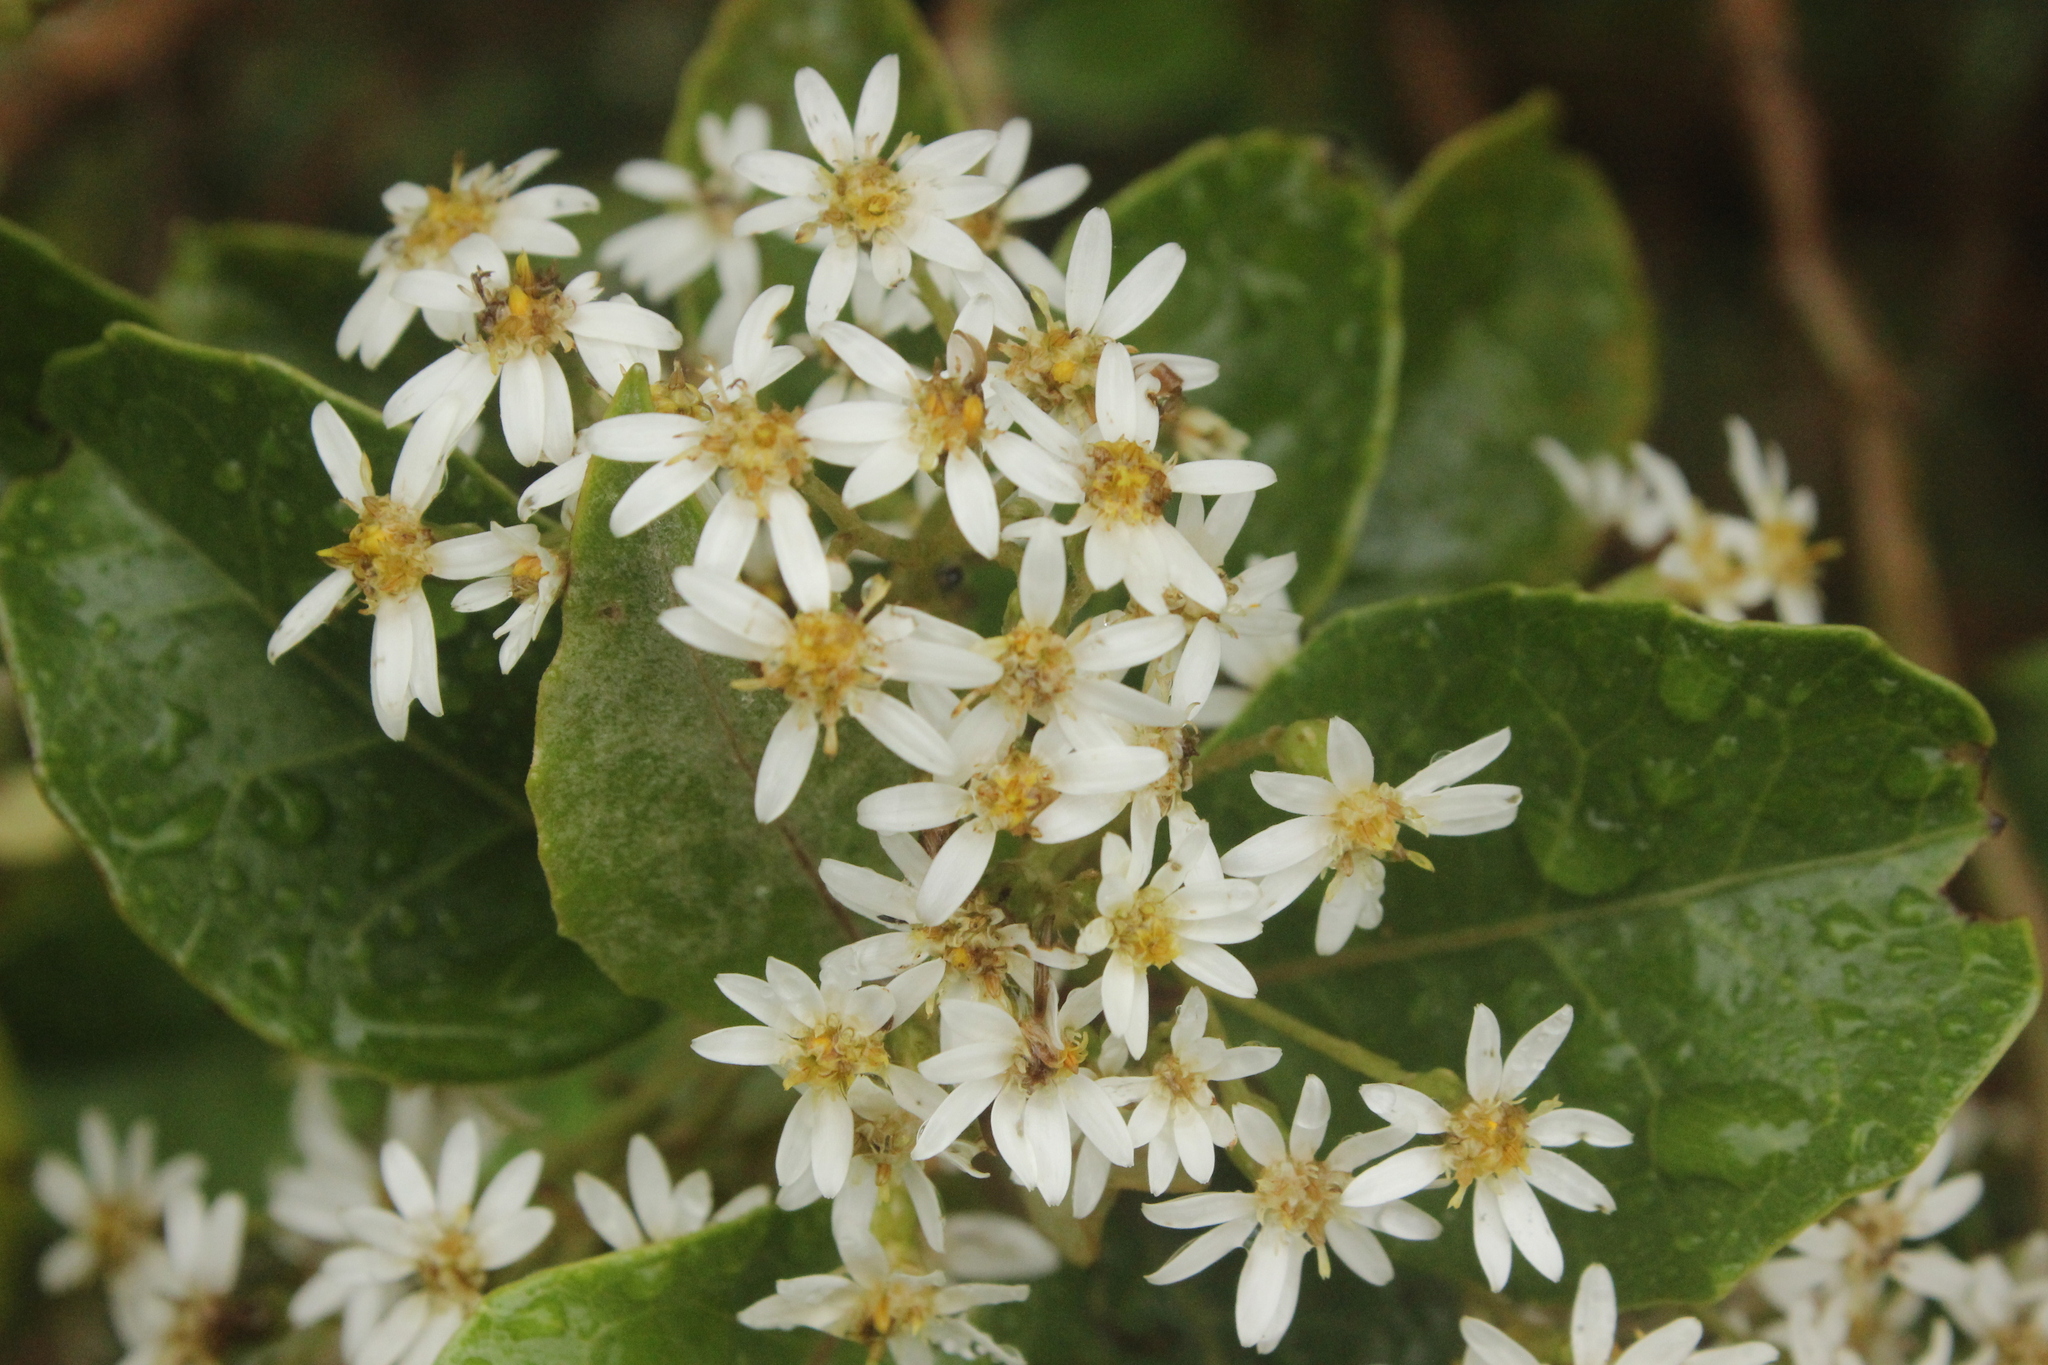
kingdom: Plantae
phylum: Tracheophyta
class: Magnoliopsida
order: Asterales
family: Asteraceae
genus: Olearia
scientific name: Olearia arborescens
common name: Glossy tree daisy
